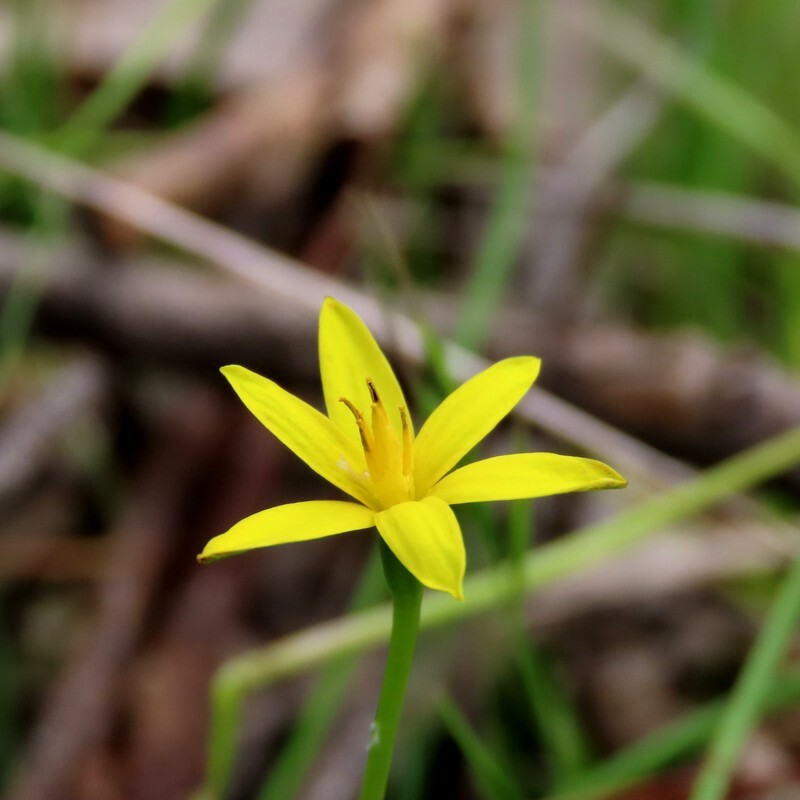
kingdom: Plantae
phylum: Tracheophyta
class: Liliopsida
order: Asparagales
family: Hypoxidaceae
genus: Pauridia
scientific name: Pauridia vaginata
